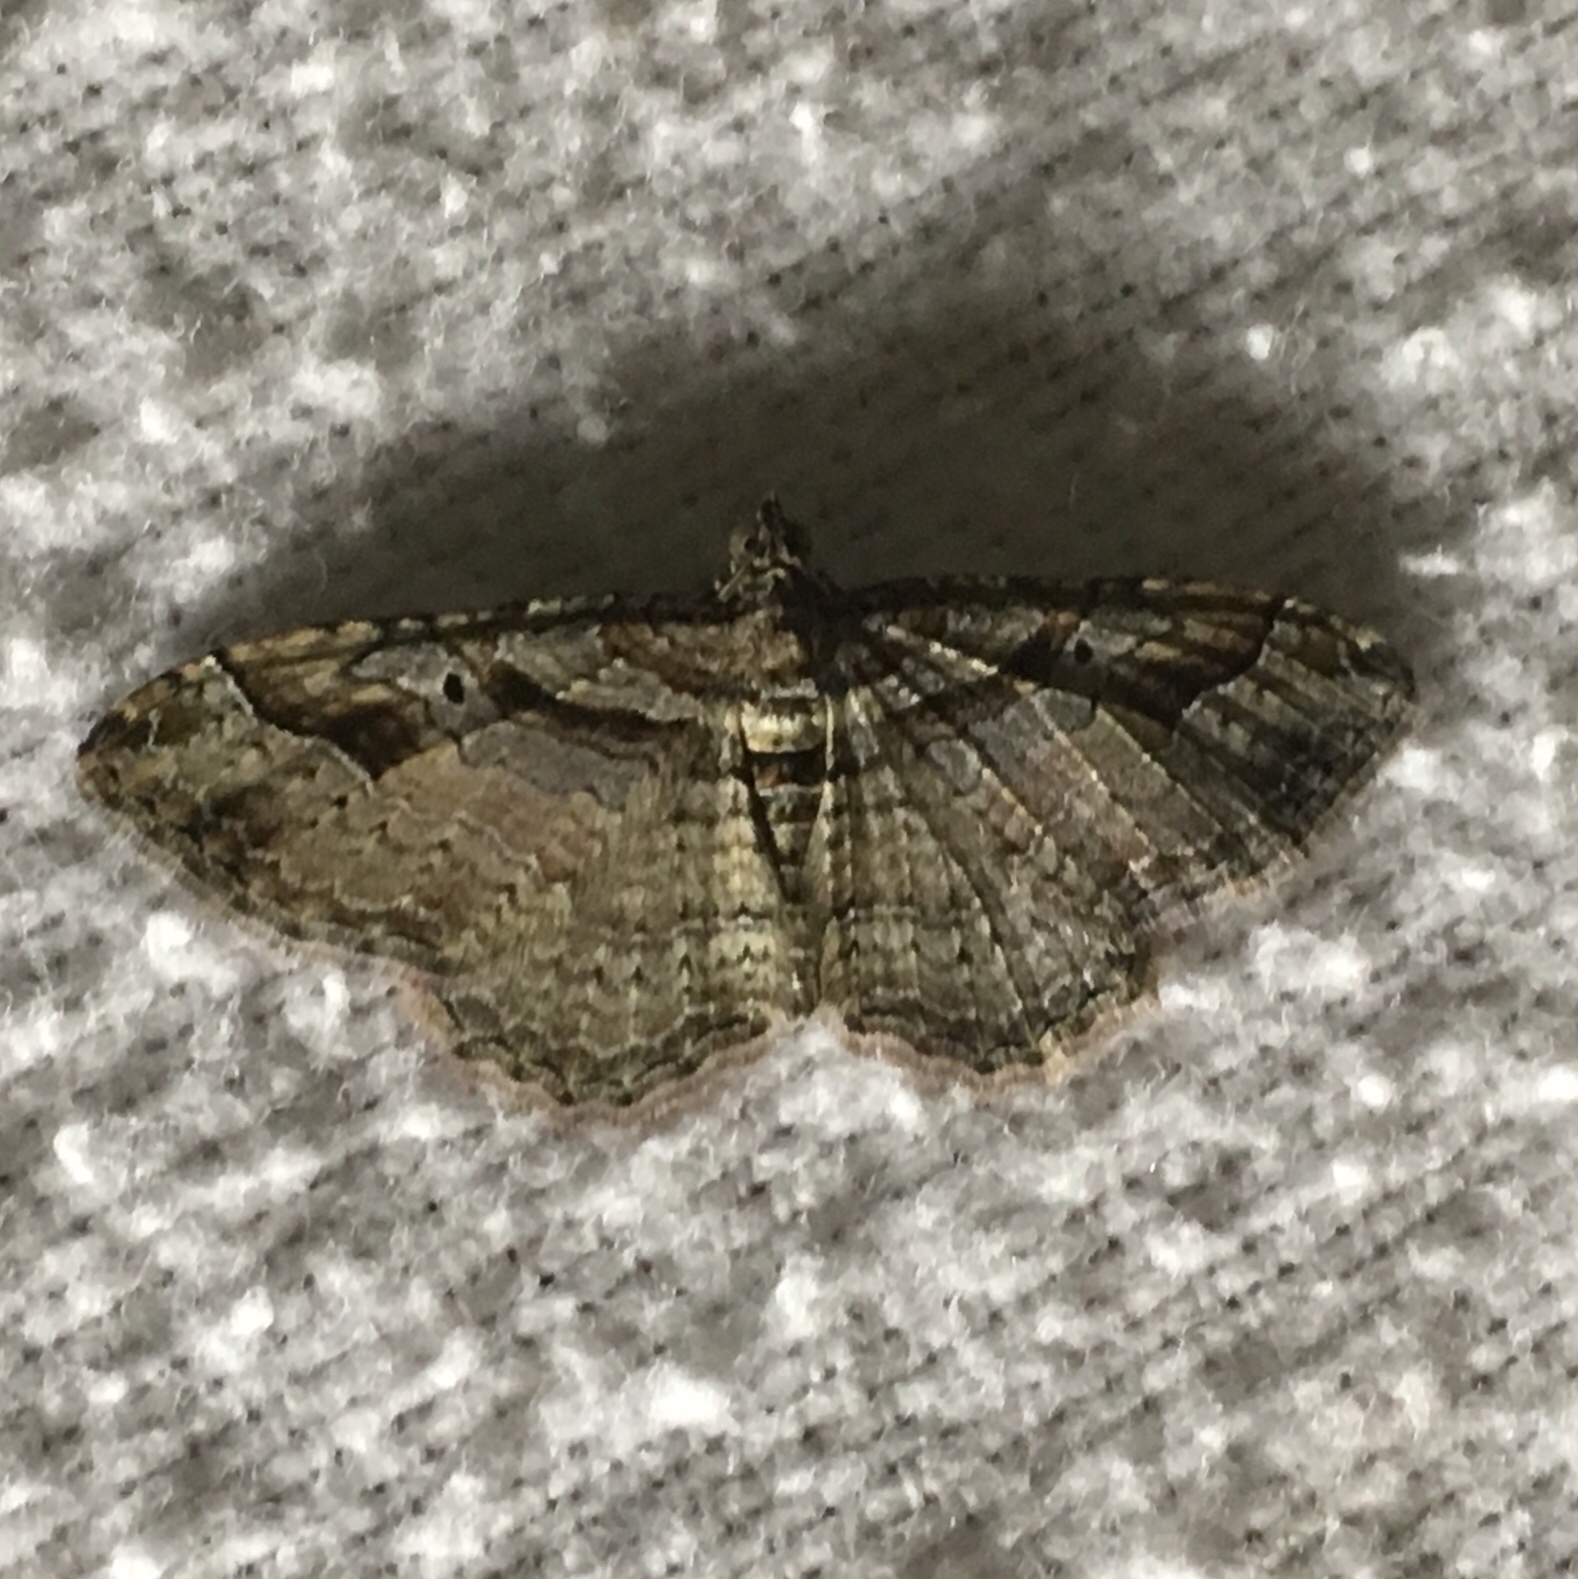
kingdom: Animalia
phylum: Arthropoda
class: Insecta
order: Lepidoptera
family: Geometridae
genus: Costaconvexa
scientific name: Costaconvexa centrostrigaria
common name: Bent-line carpet
